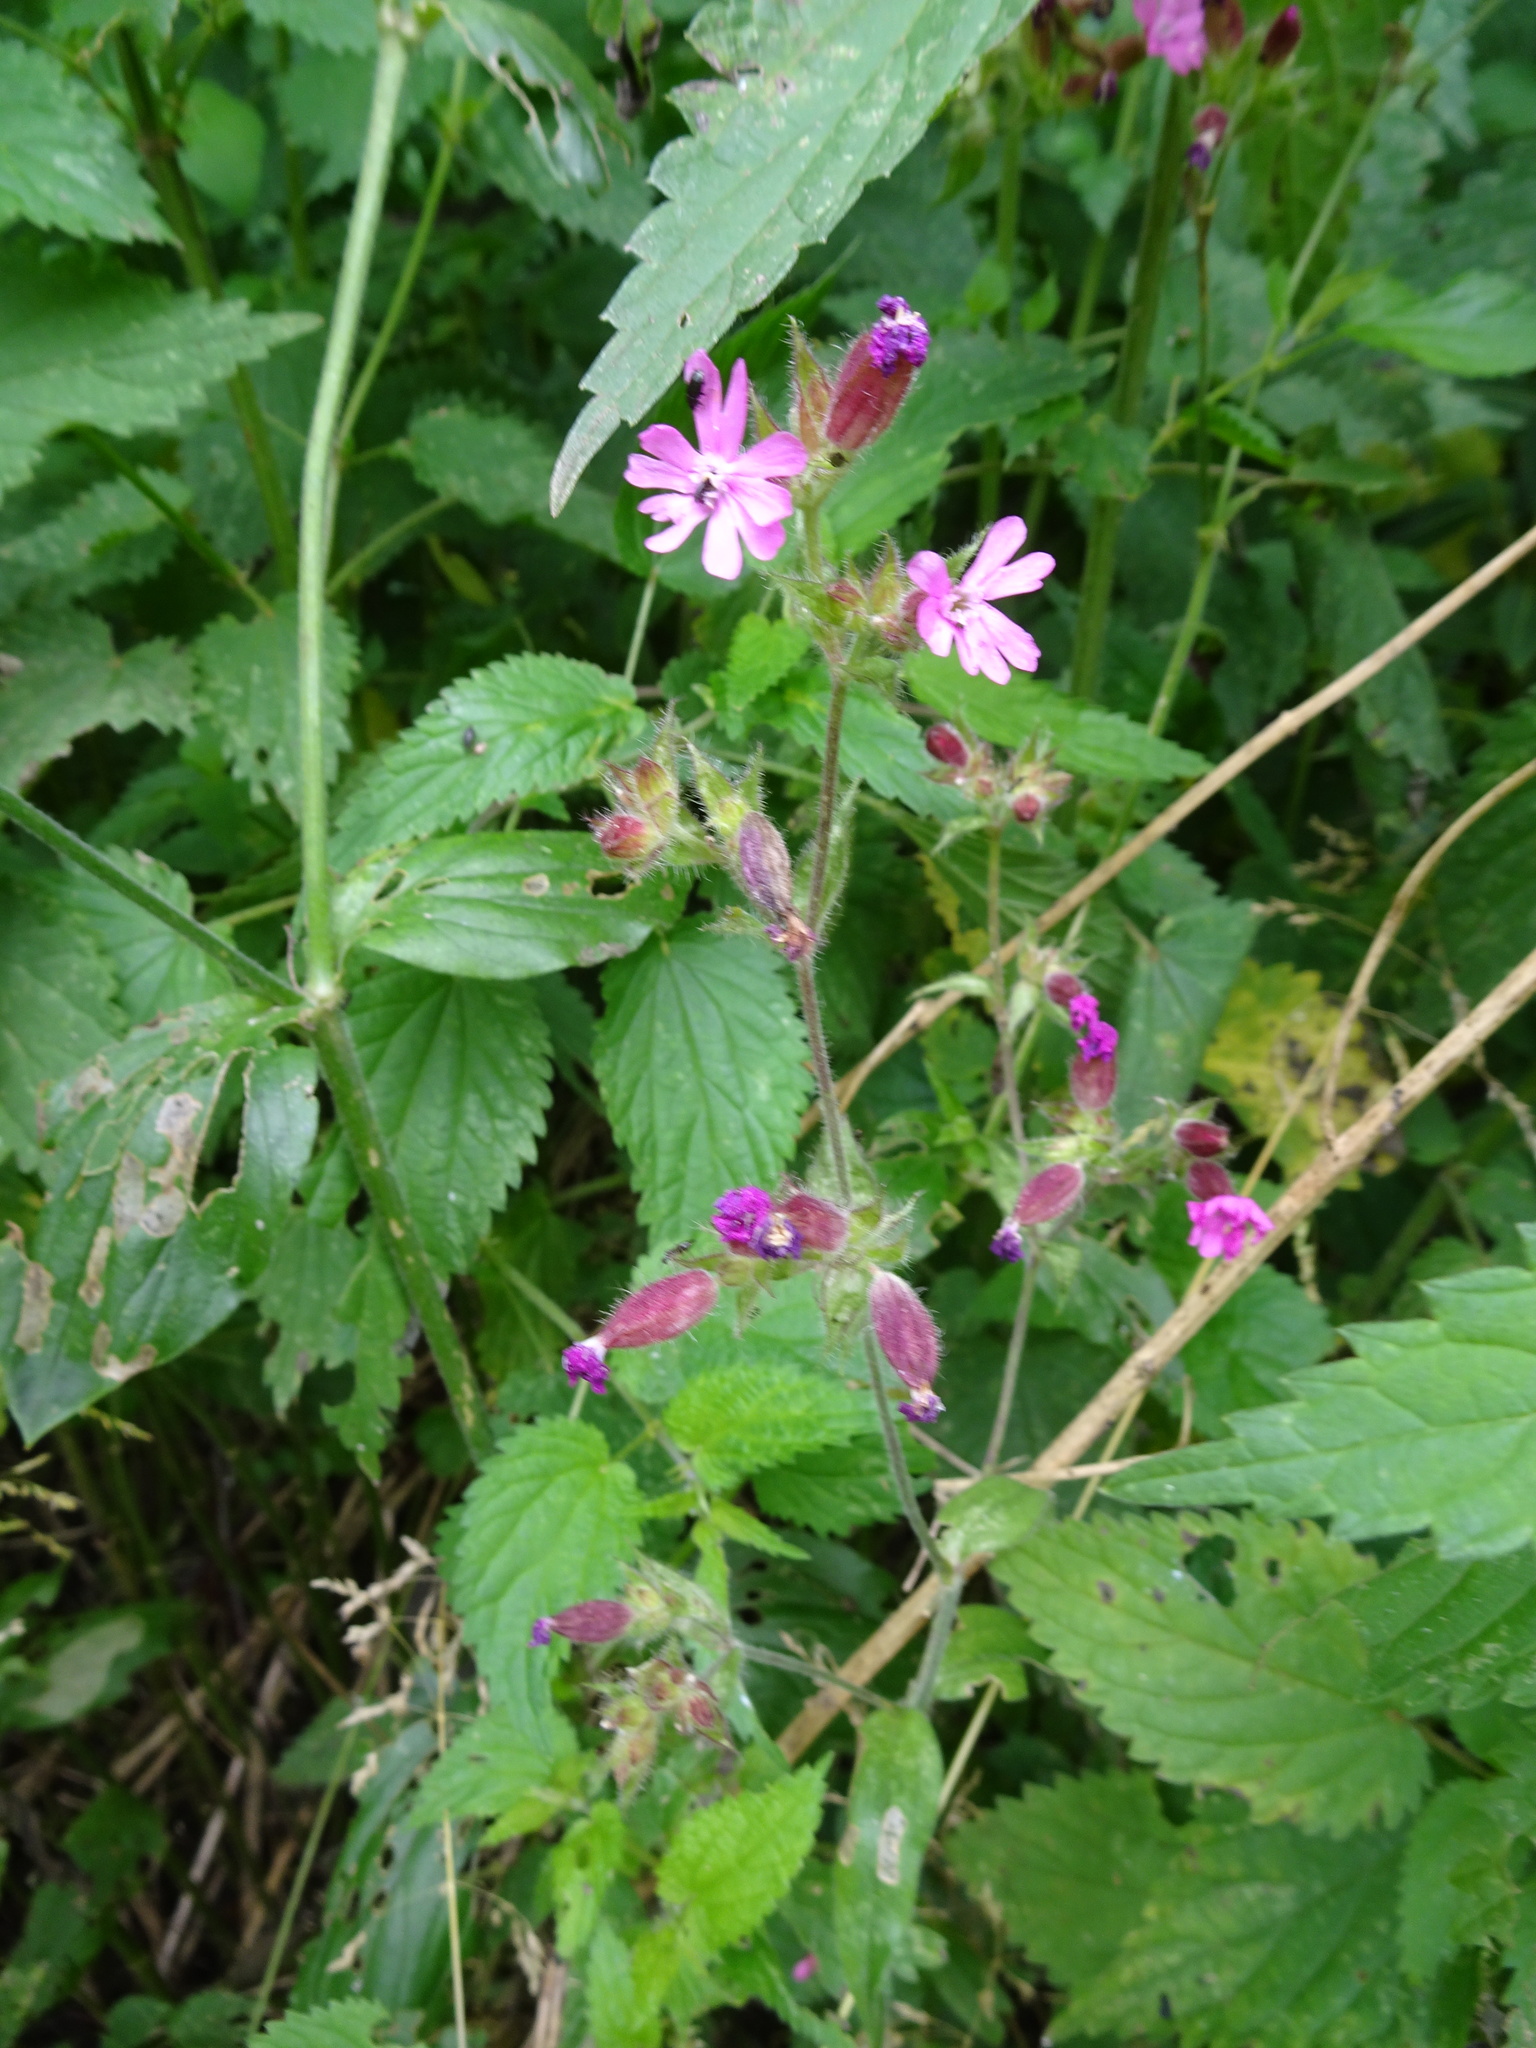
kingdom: Plantae
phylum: Tracheophyta
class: Magnoliopsida
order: Caryophyllales
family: Caryophyllaceae
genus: Silene
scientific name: Silene dioica
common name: Red campion
